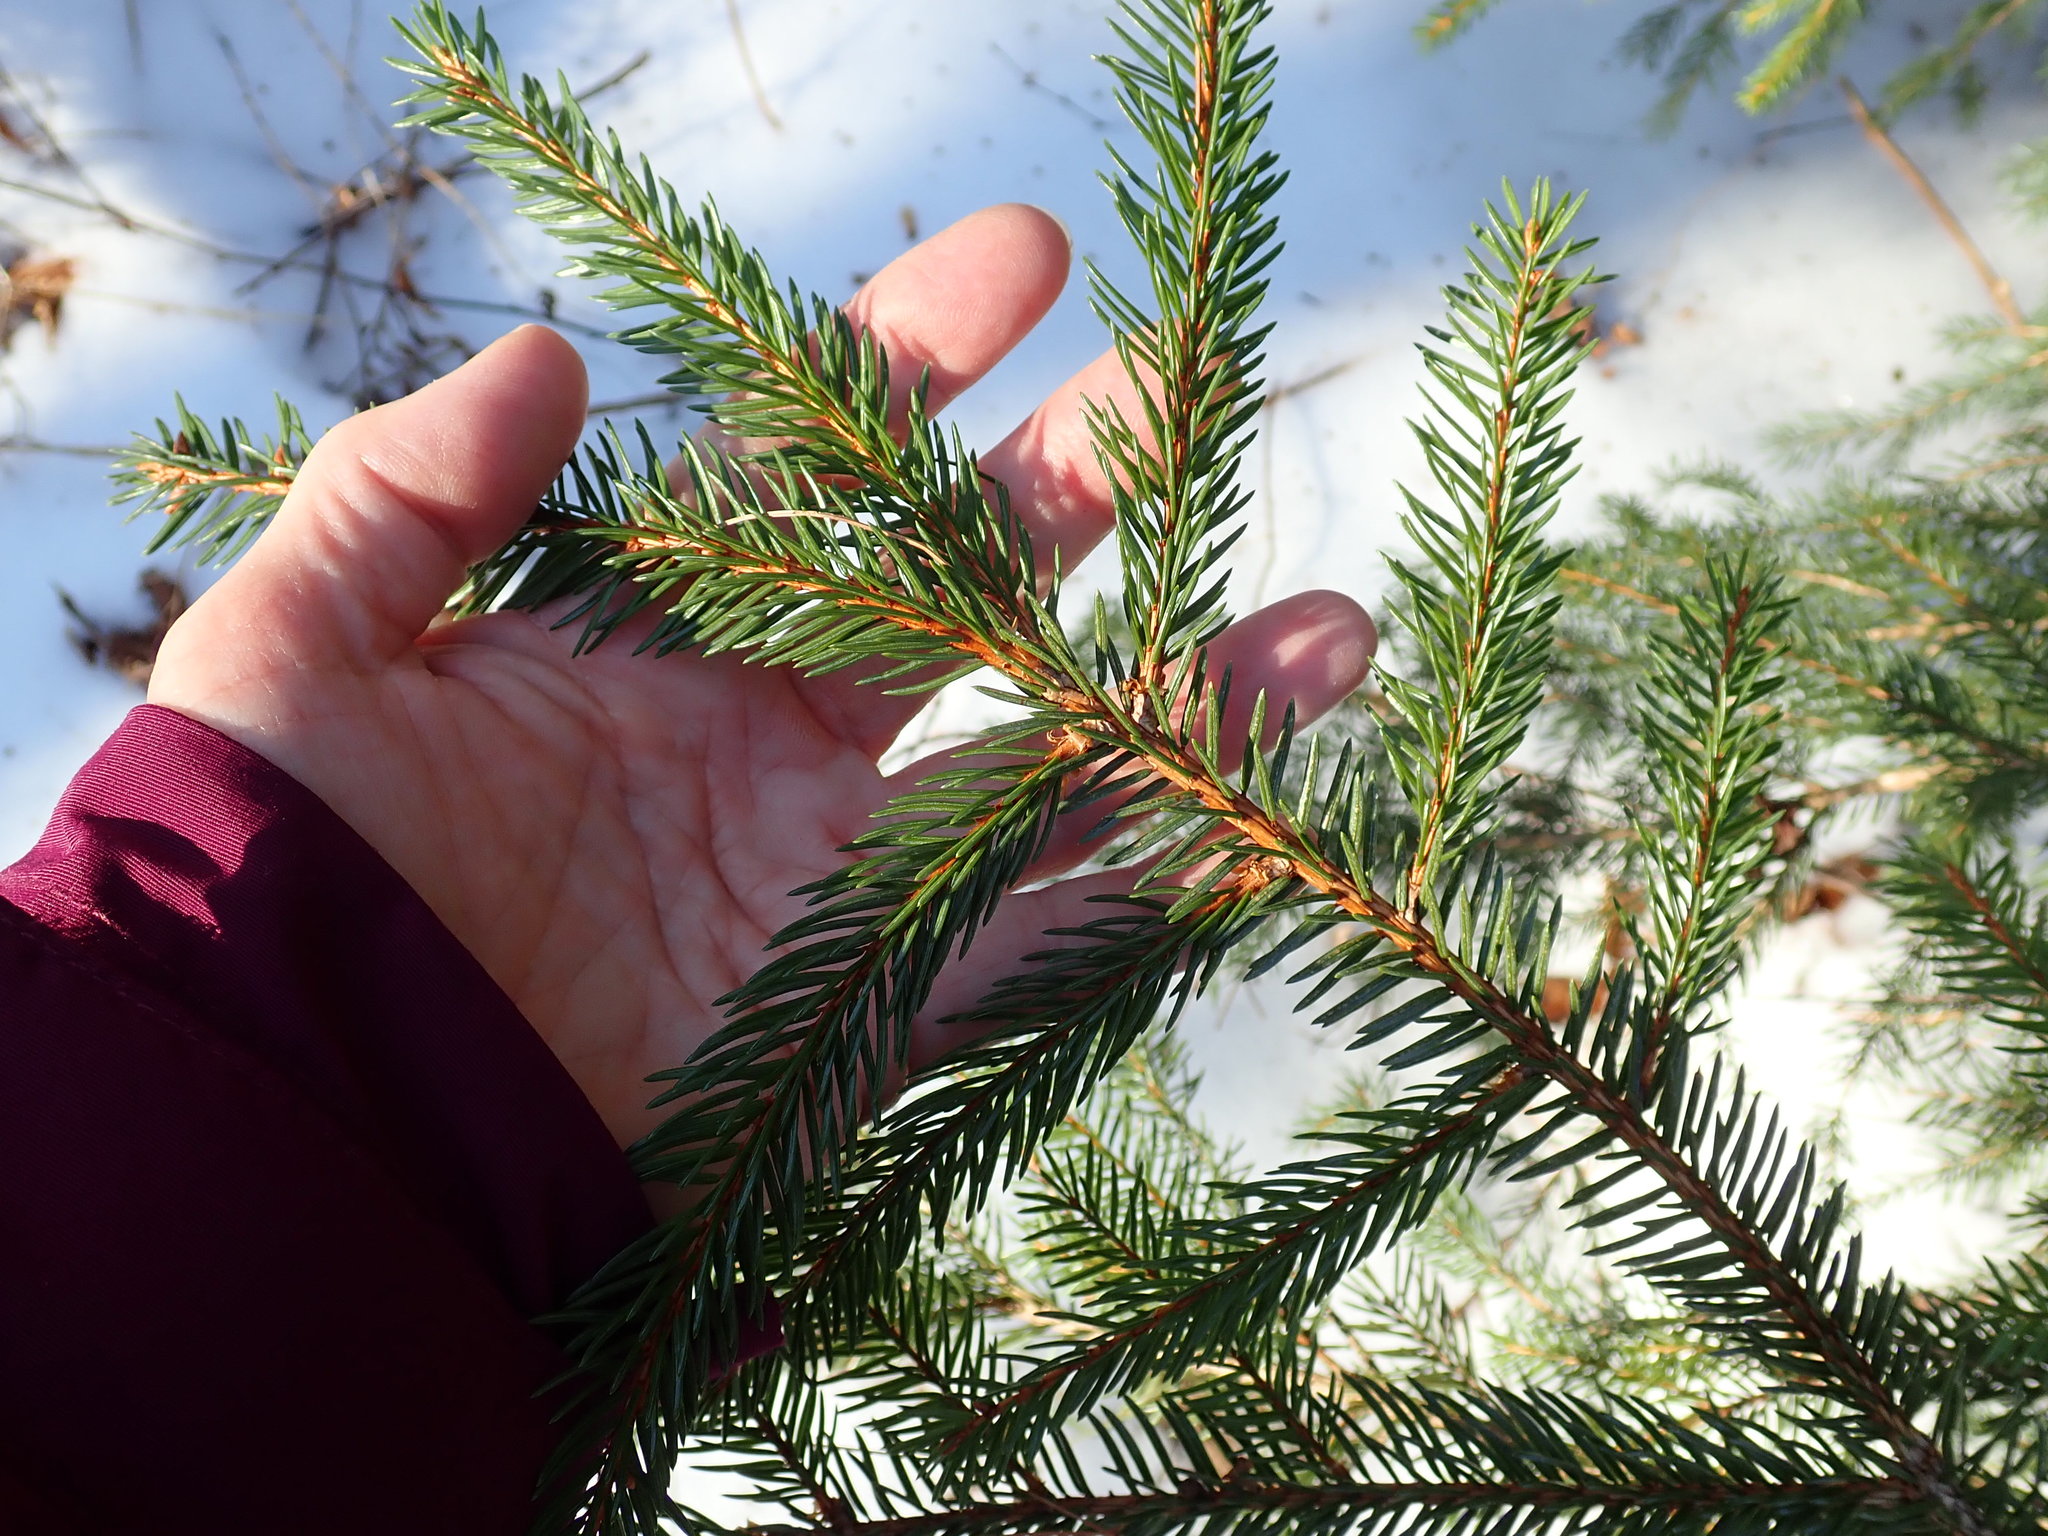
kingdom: Plantae
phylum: Tracheophyta
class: Pinopsida
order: Pinales
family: Pinaceae
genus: Picea
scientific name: Picea rubens
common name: Red spruce
